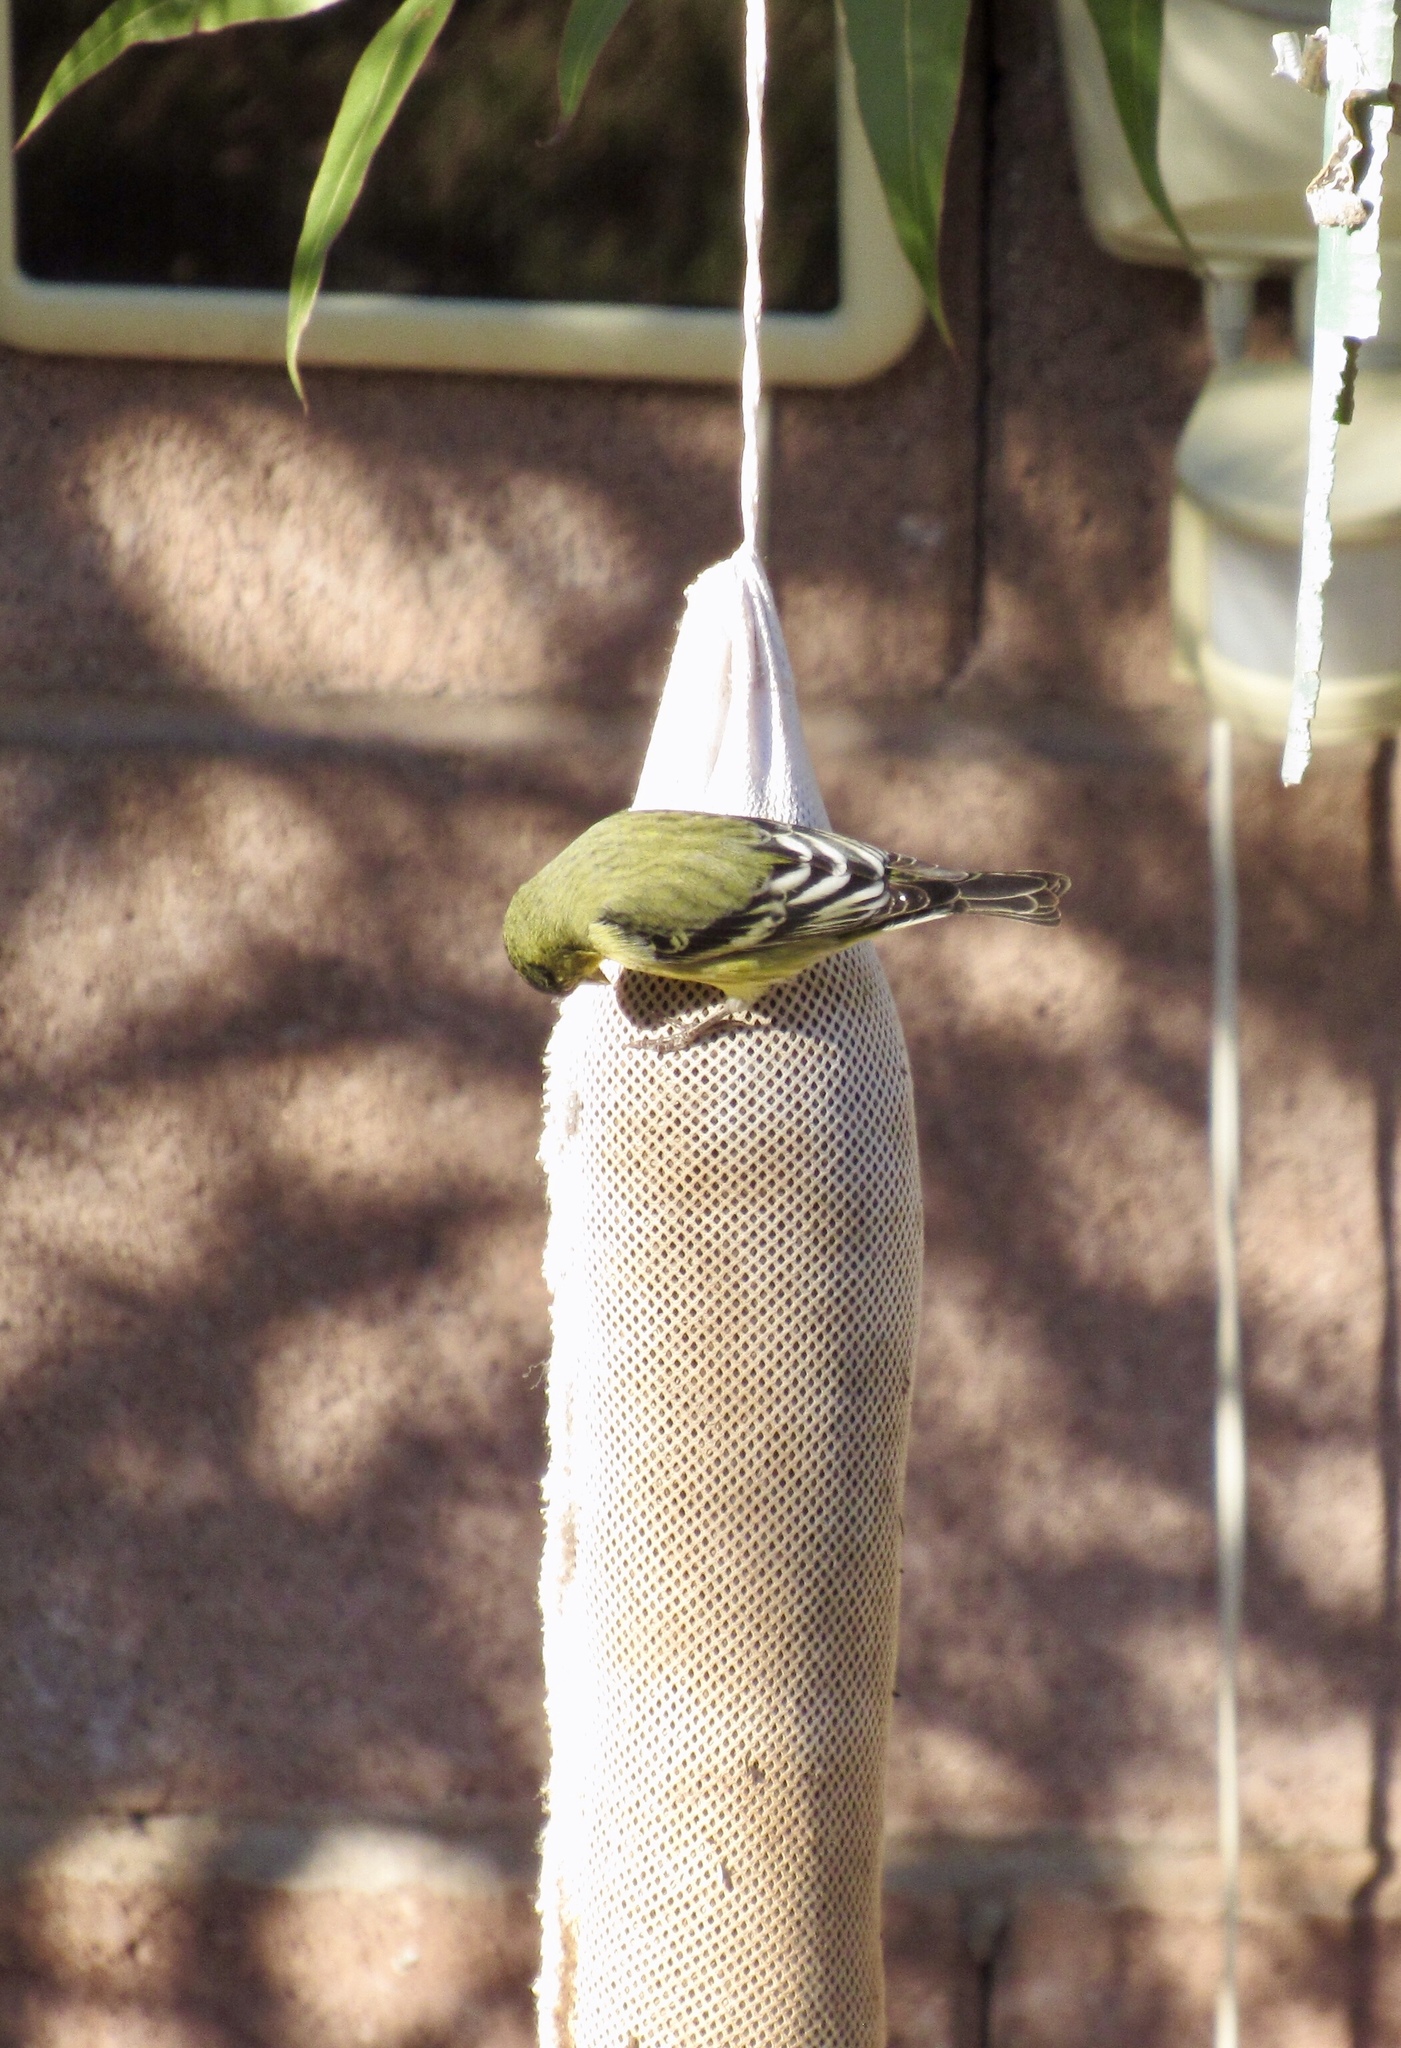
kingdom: Animalia
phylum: Chordata
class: Aves
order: Passeriformes
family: Fringillidae
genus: Spinus
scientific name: Spinus psaltria
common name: Lesser goldfinch
